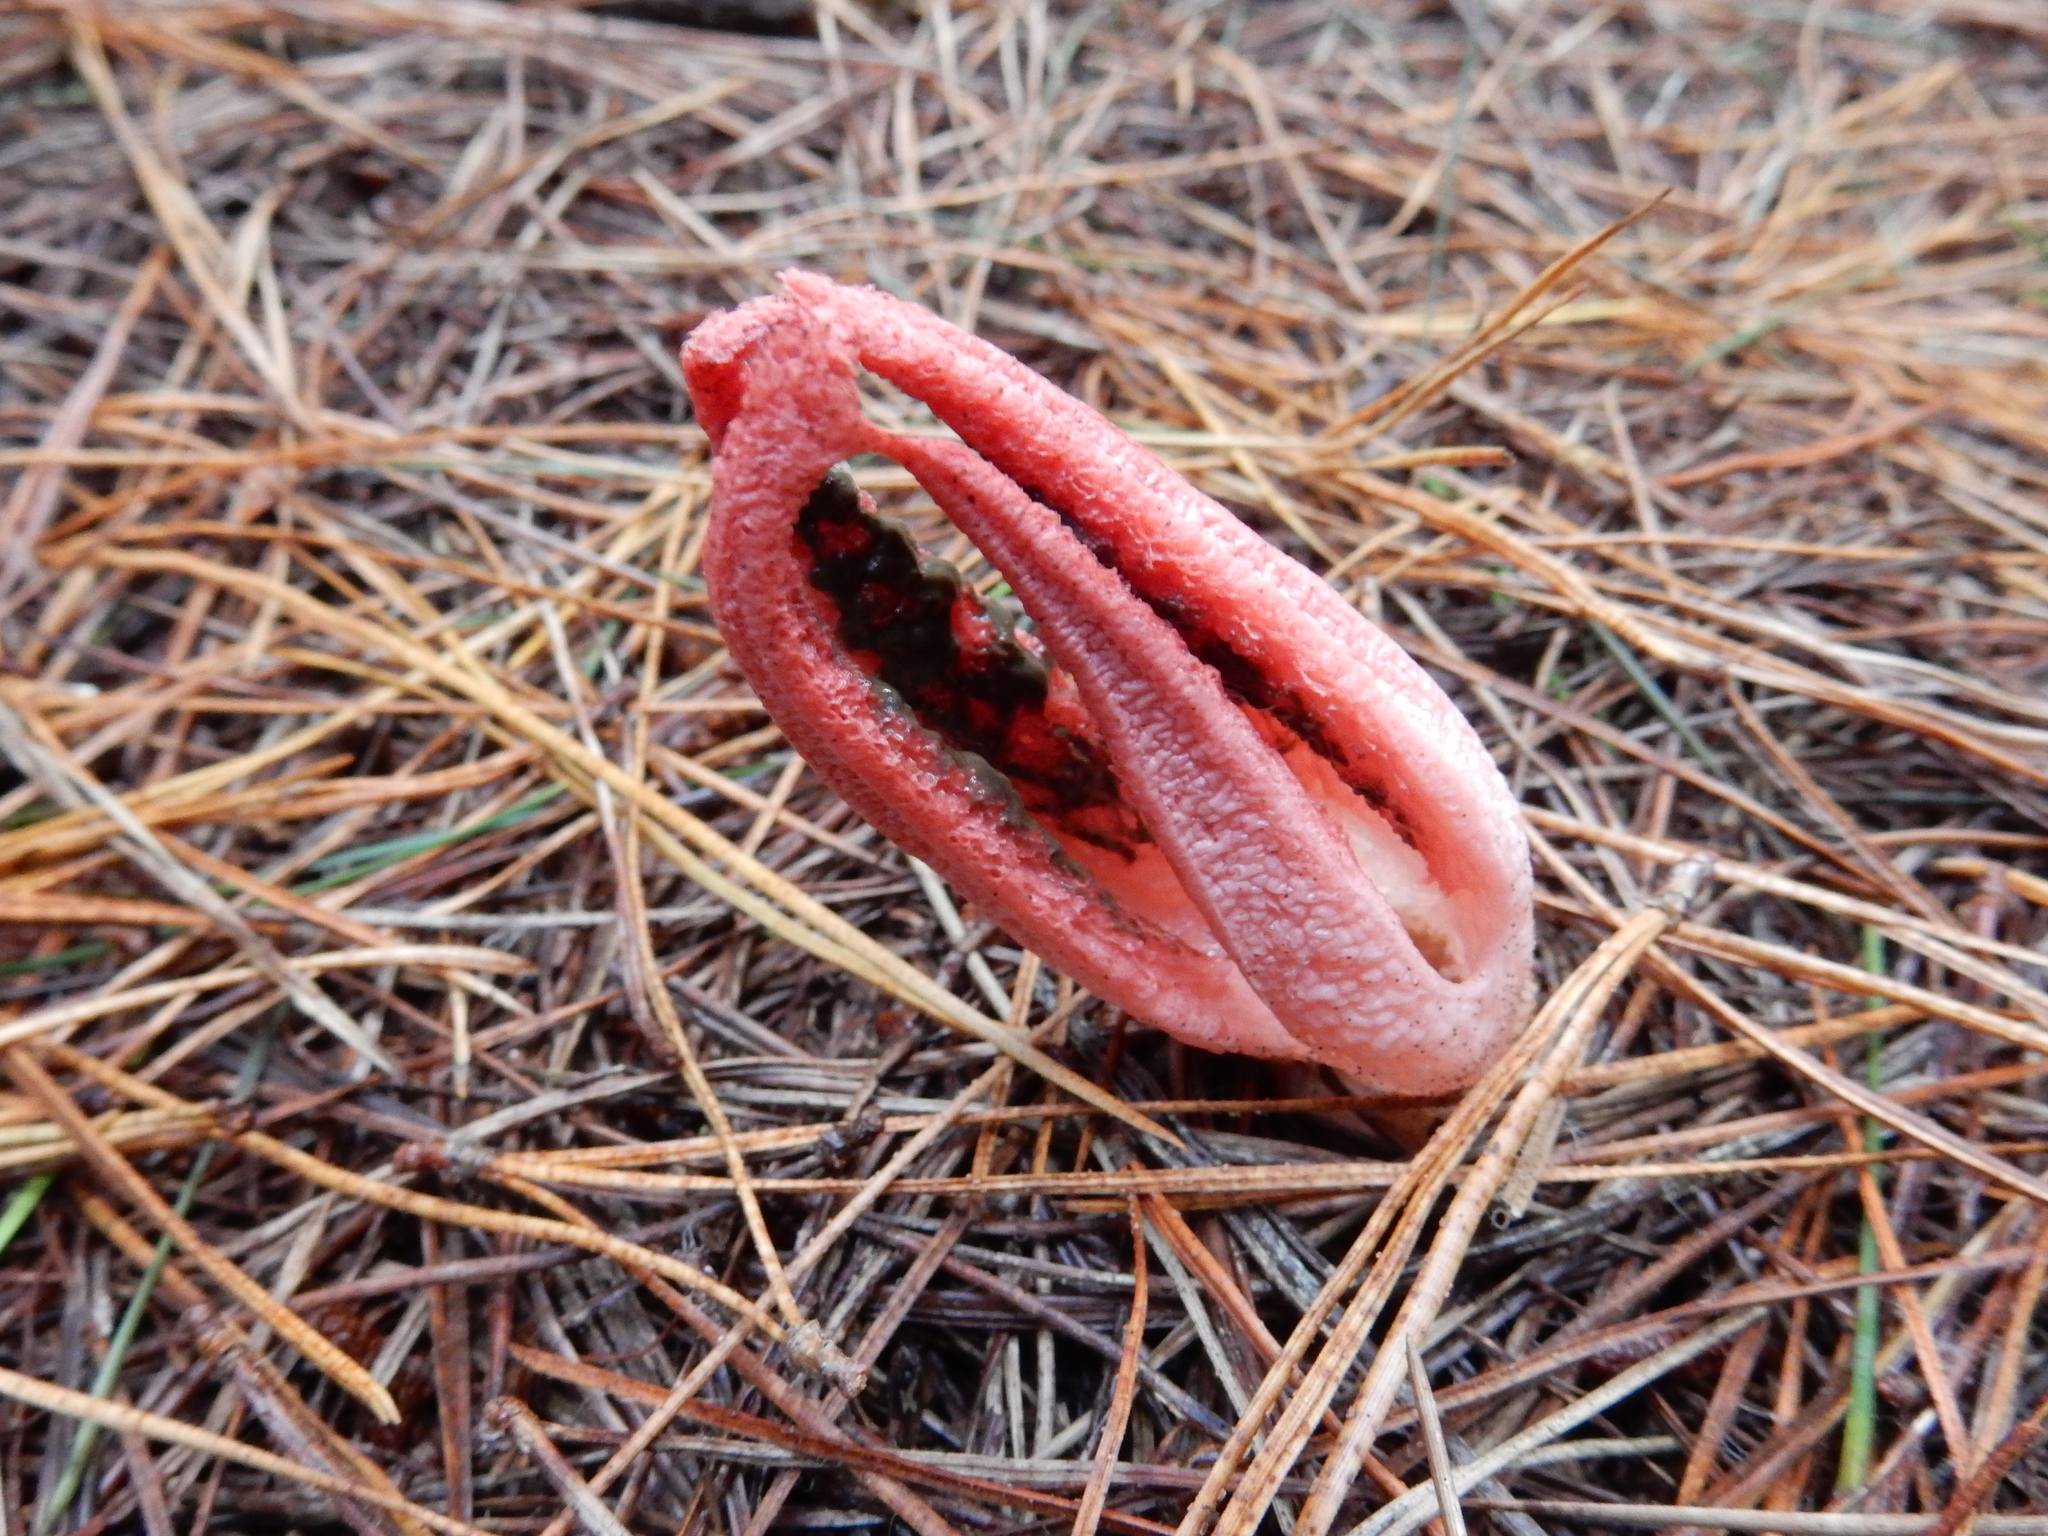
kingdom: Fungi
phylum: Basidiomycota
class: Agaricomycetes
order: Phallales
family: Phallaceae
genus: Clathrus
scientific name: Clathrus archeri
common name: Devil's fingers
